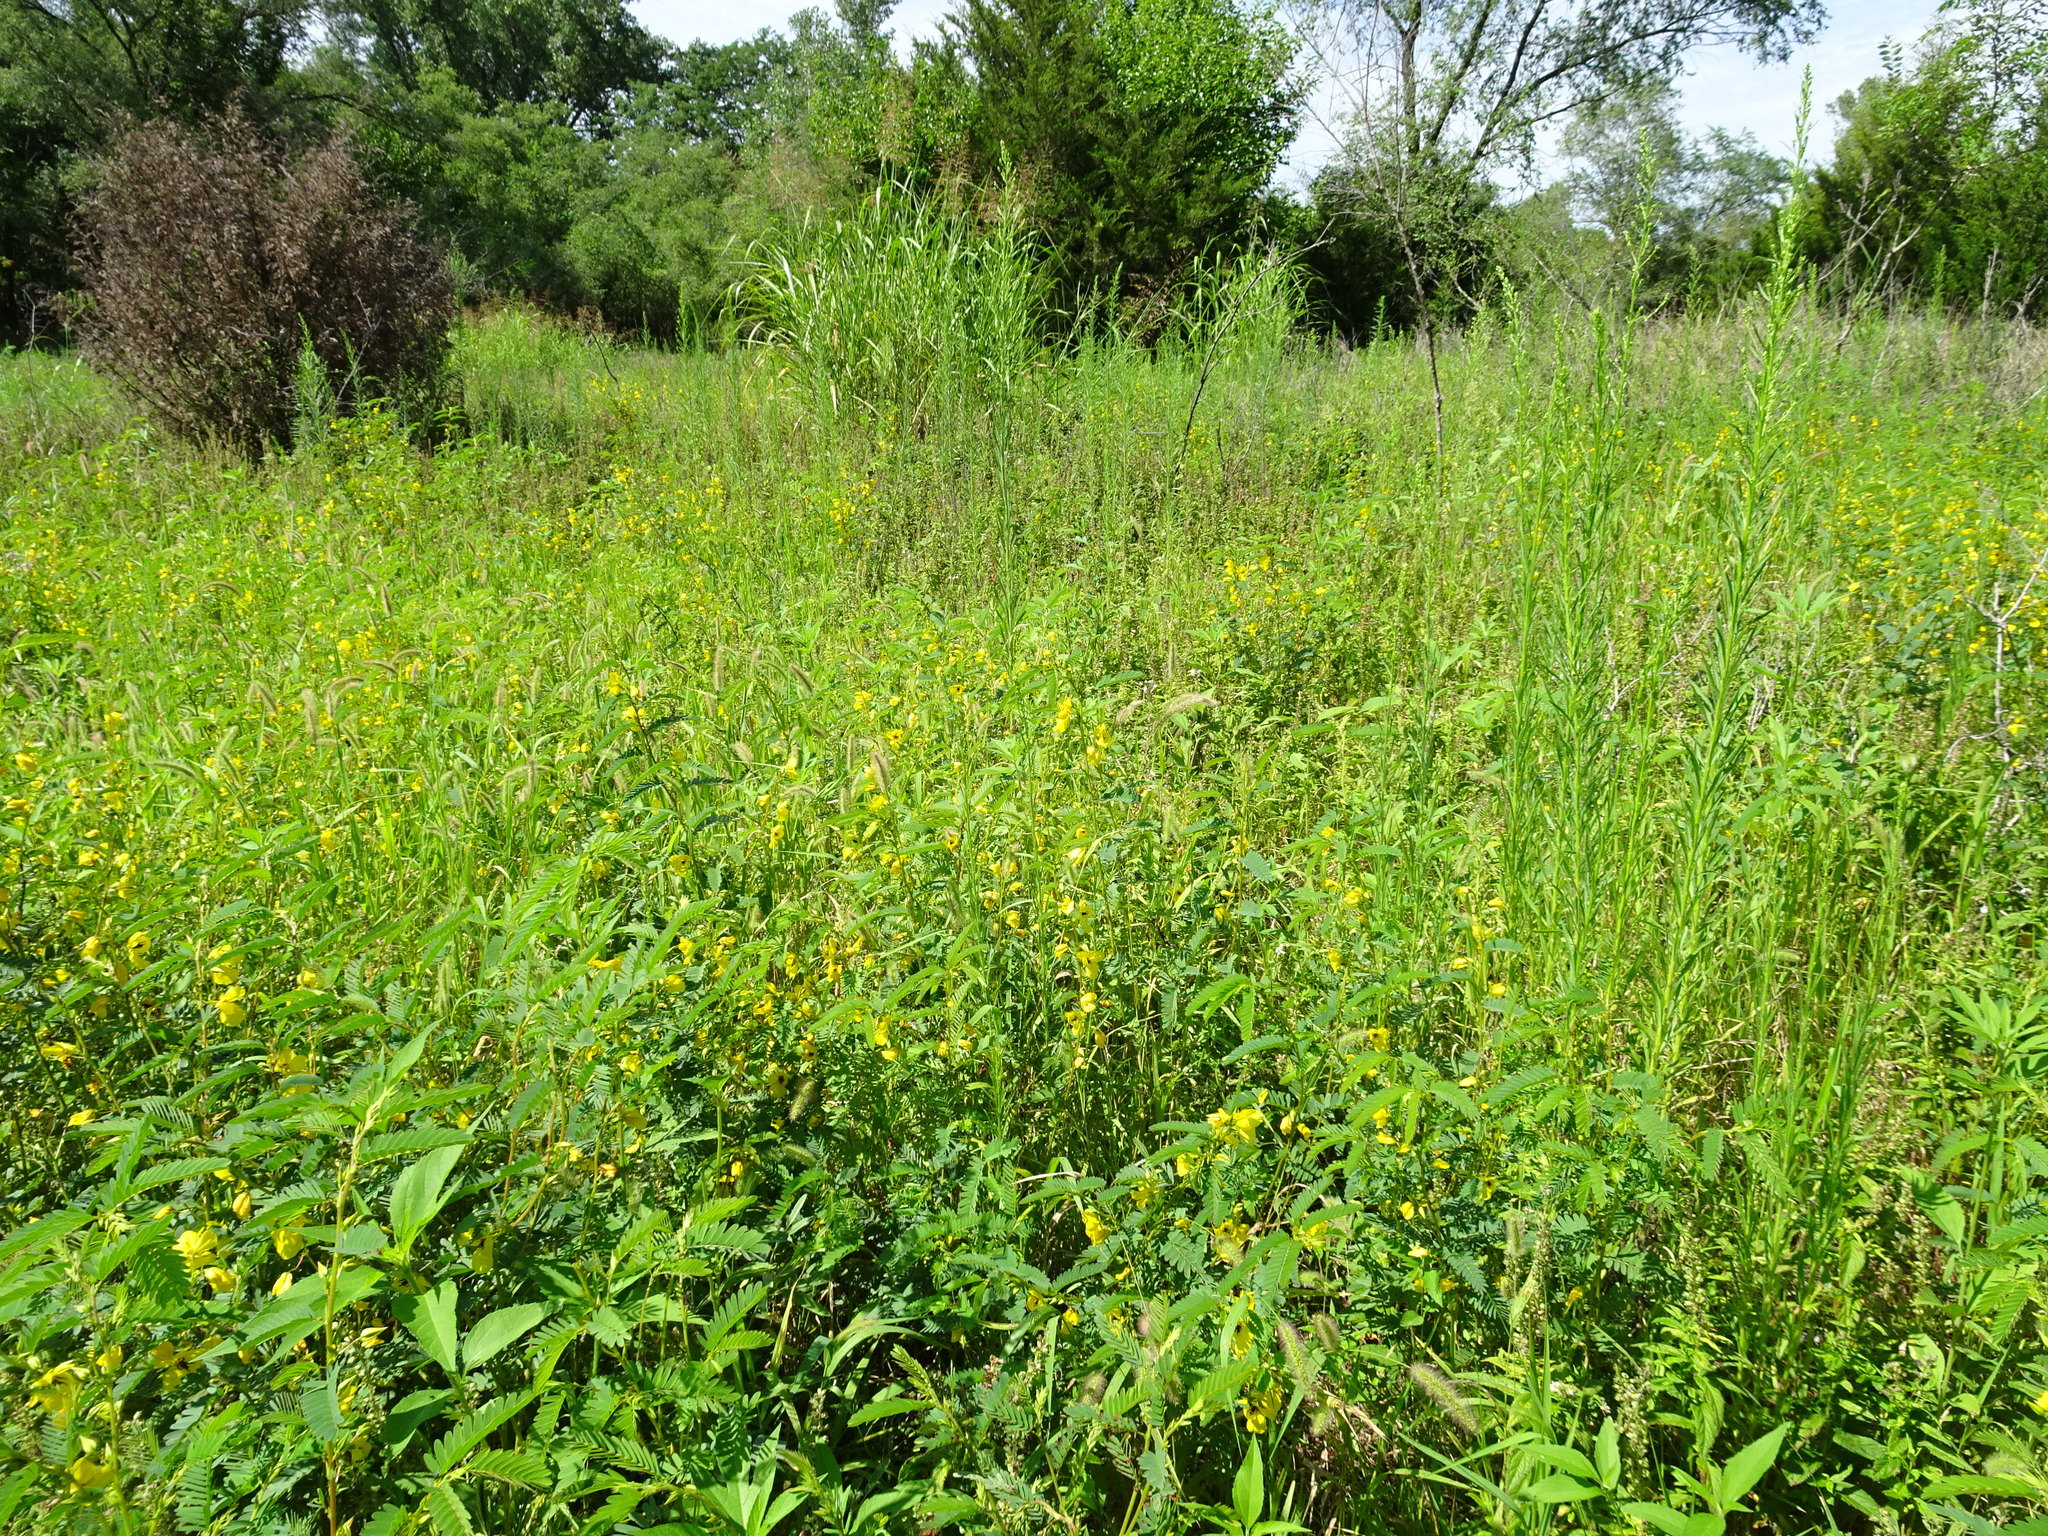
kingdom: Plantae
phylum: Tracheophyta
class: Magnoliopsida
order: Fabales
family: Fabaceae
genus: Chamaecrista
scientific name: Chamaecrista fasciculata
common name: Golden cassia
